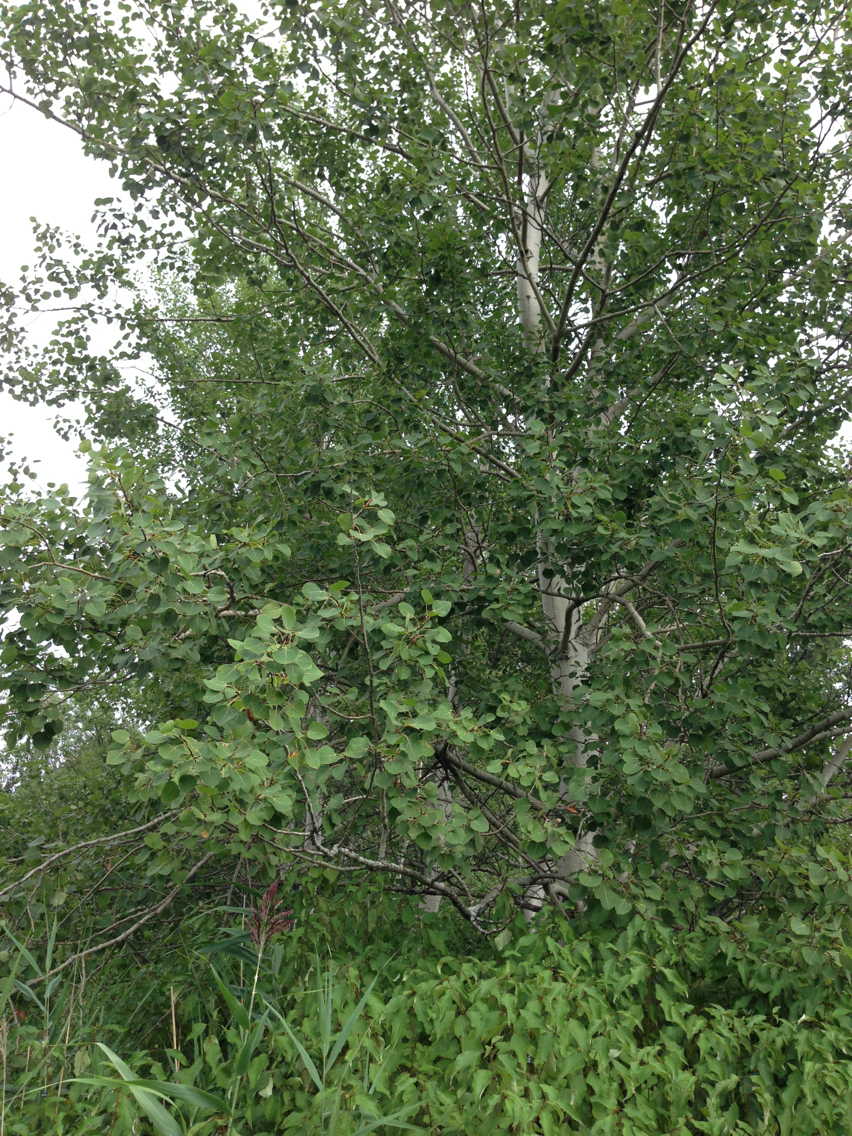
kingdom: Plantae
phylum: Tracheophyta
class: Magnoliopsida
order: Malpighiales
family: Salicaceae
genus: Populus
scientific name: Populus tremuloides
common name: Quaking aspen
